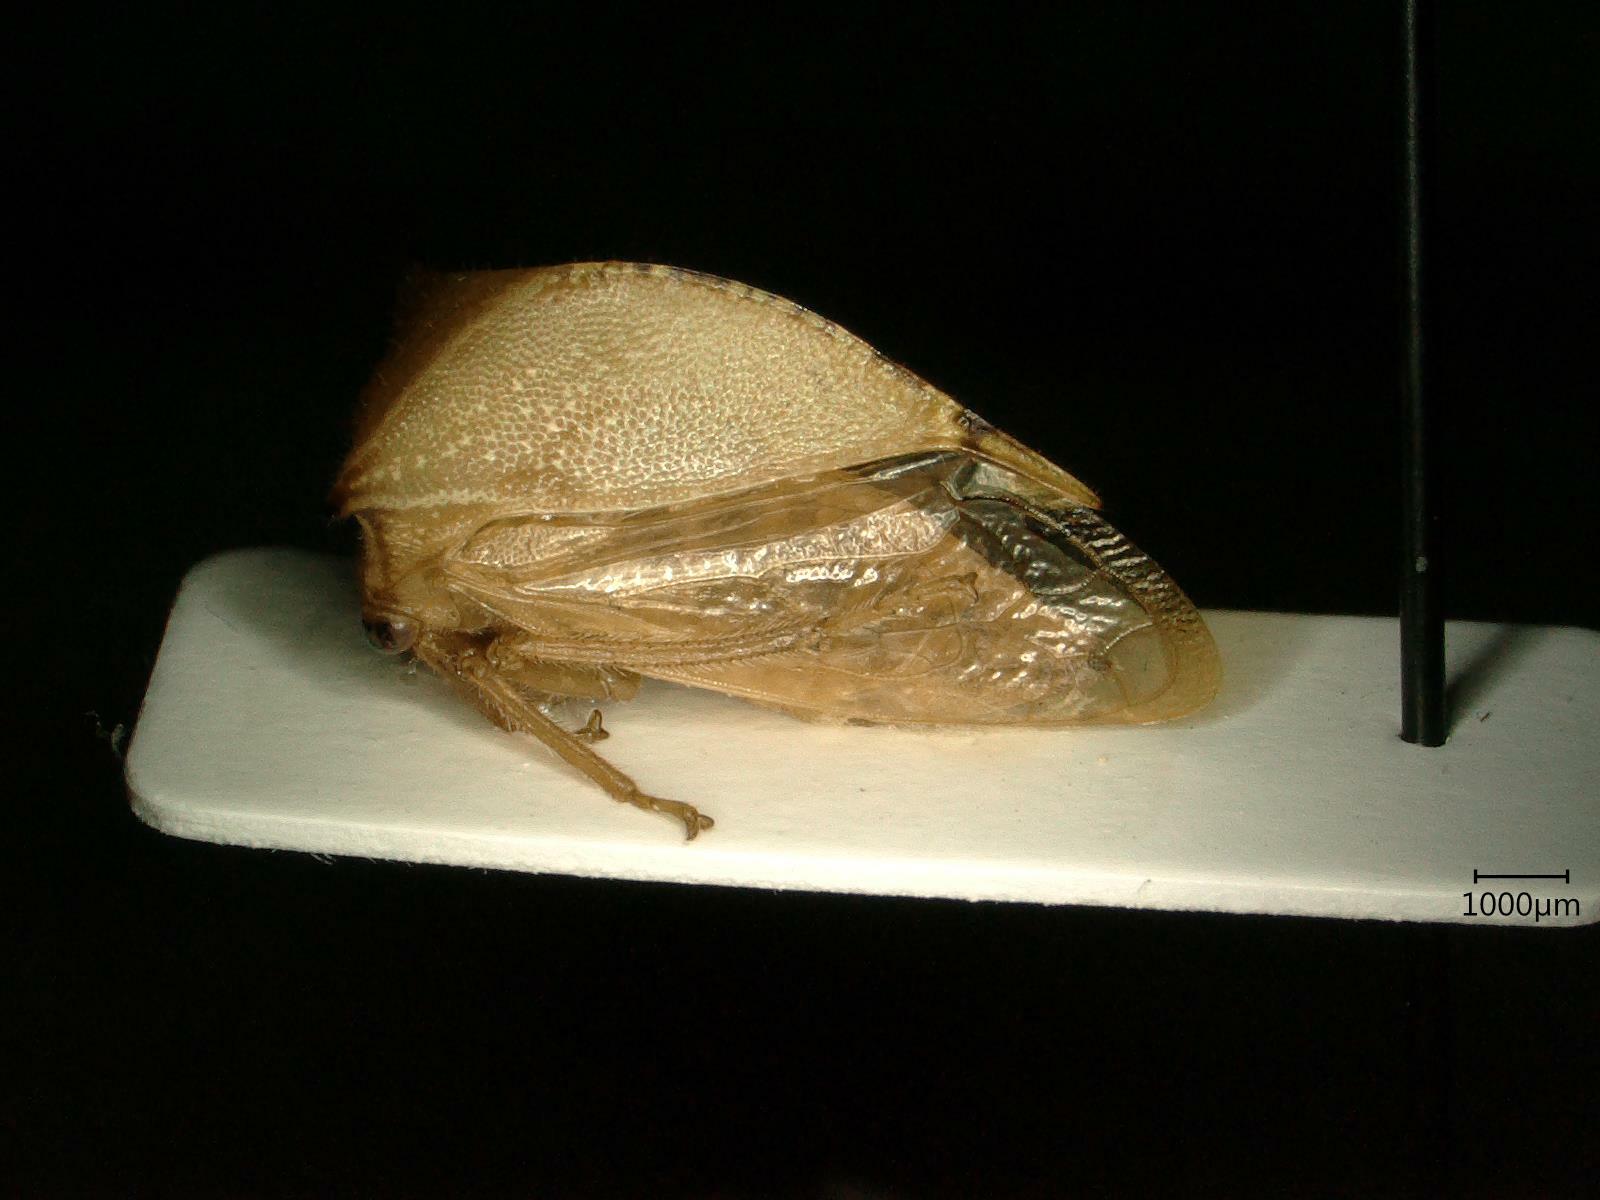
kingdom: Animalia
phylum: Arthropoda
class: Insecta
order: Hemiptera
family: Membracidae
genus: Stictocephala
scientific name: Stictocephala bisonia
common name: American buffalo treehopper
